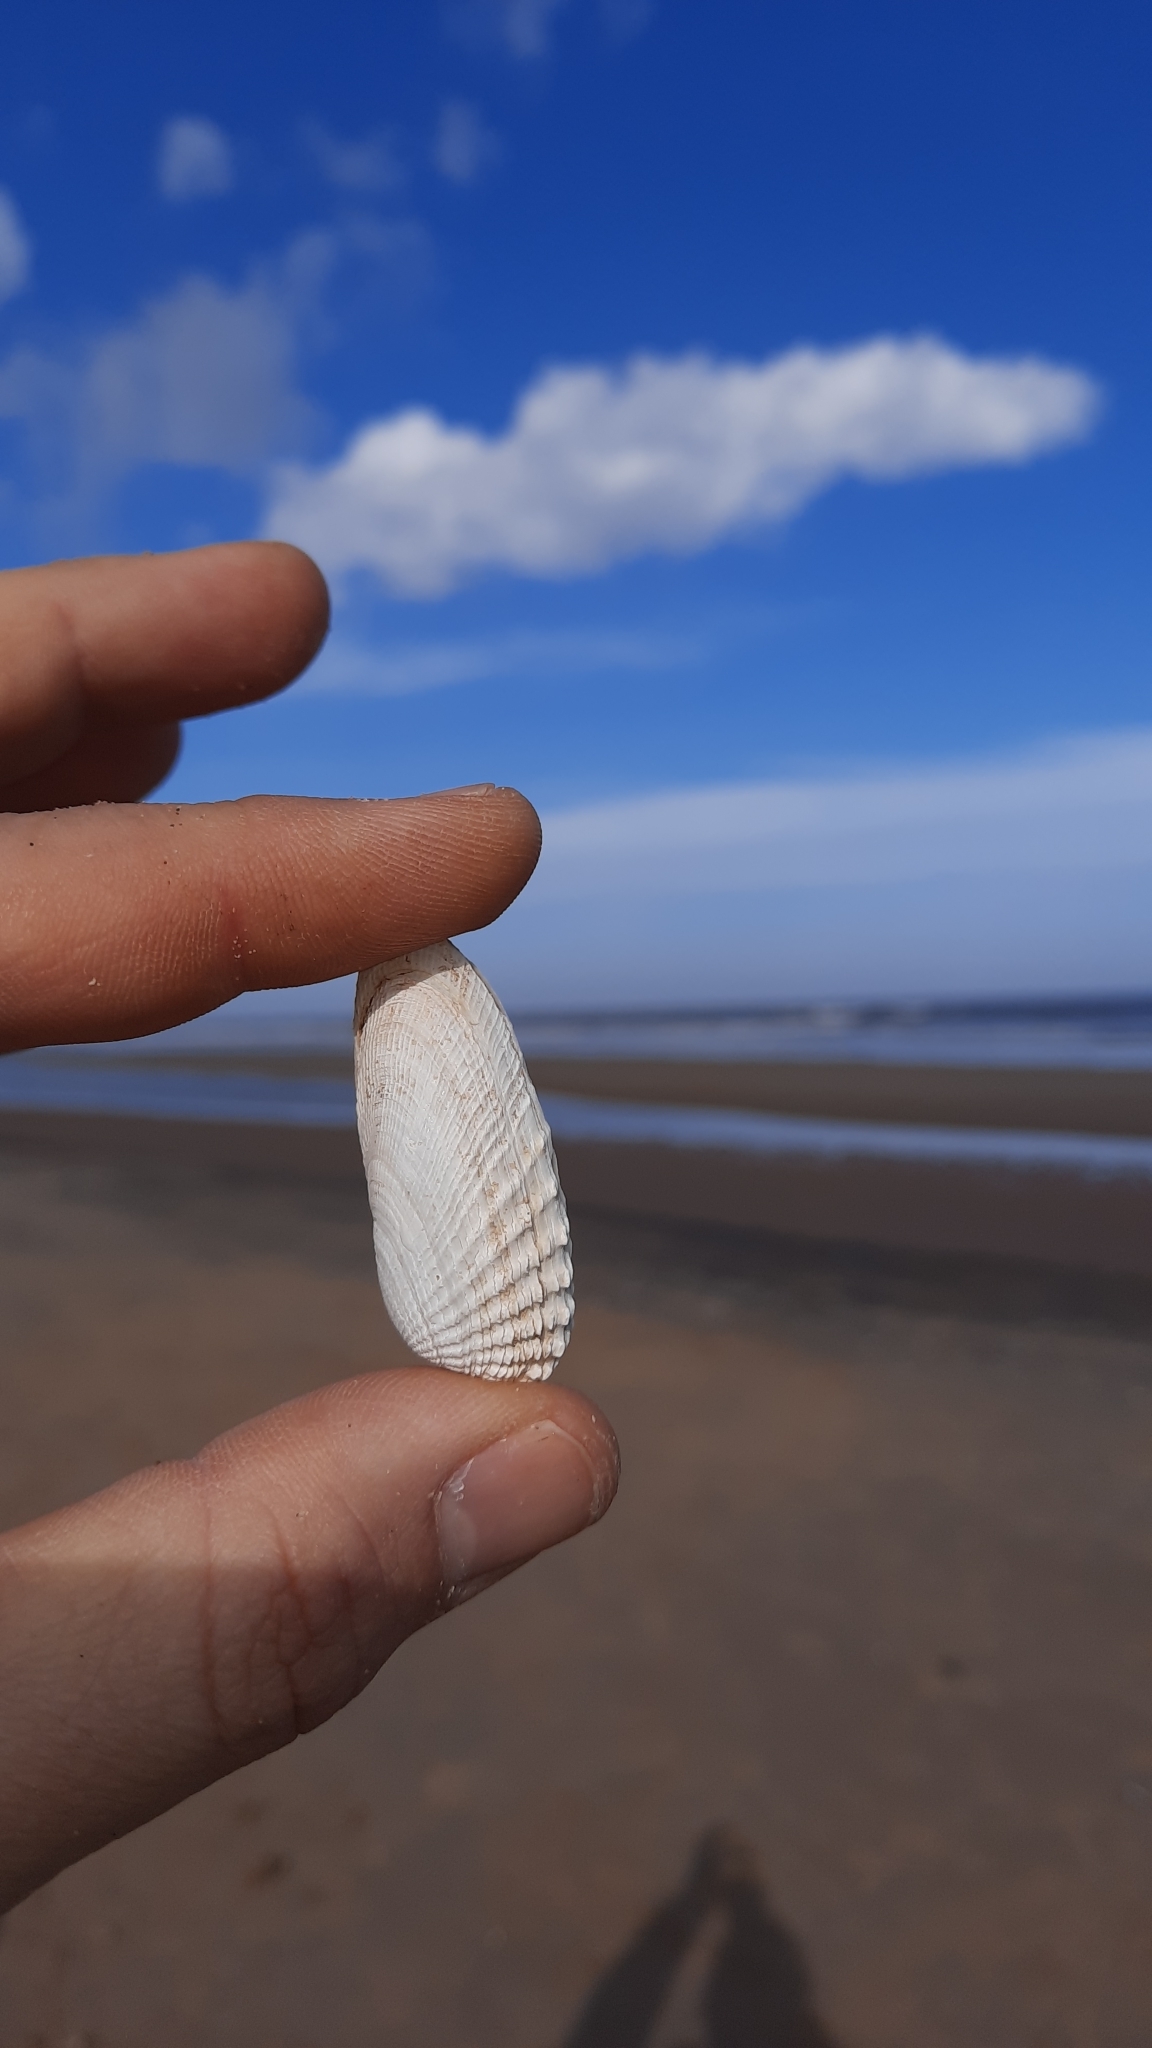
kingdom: Animalia
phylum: Mollusca
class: Bivalvia
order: Venerida
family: Veneridae
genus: Petricolaria
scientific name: Petricolaria pholadiformis
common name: American piddock
